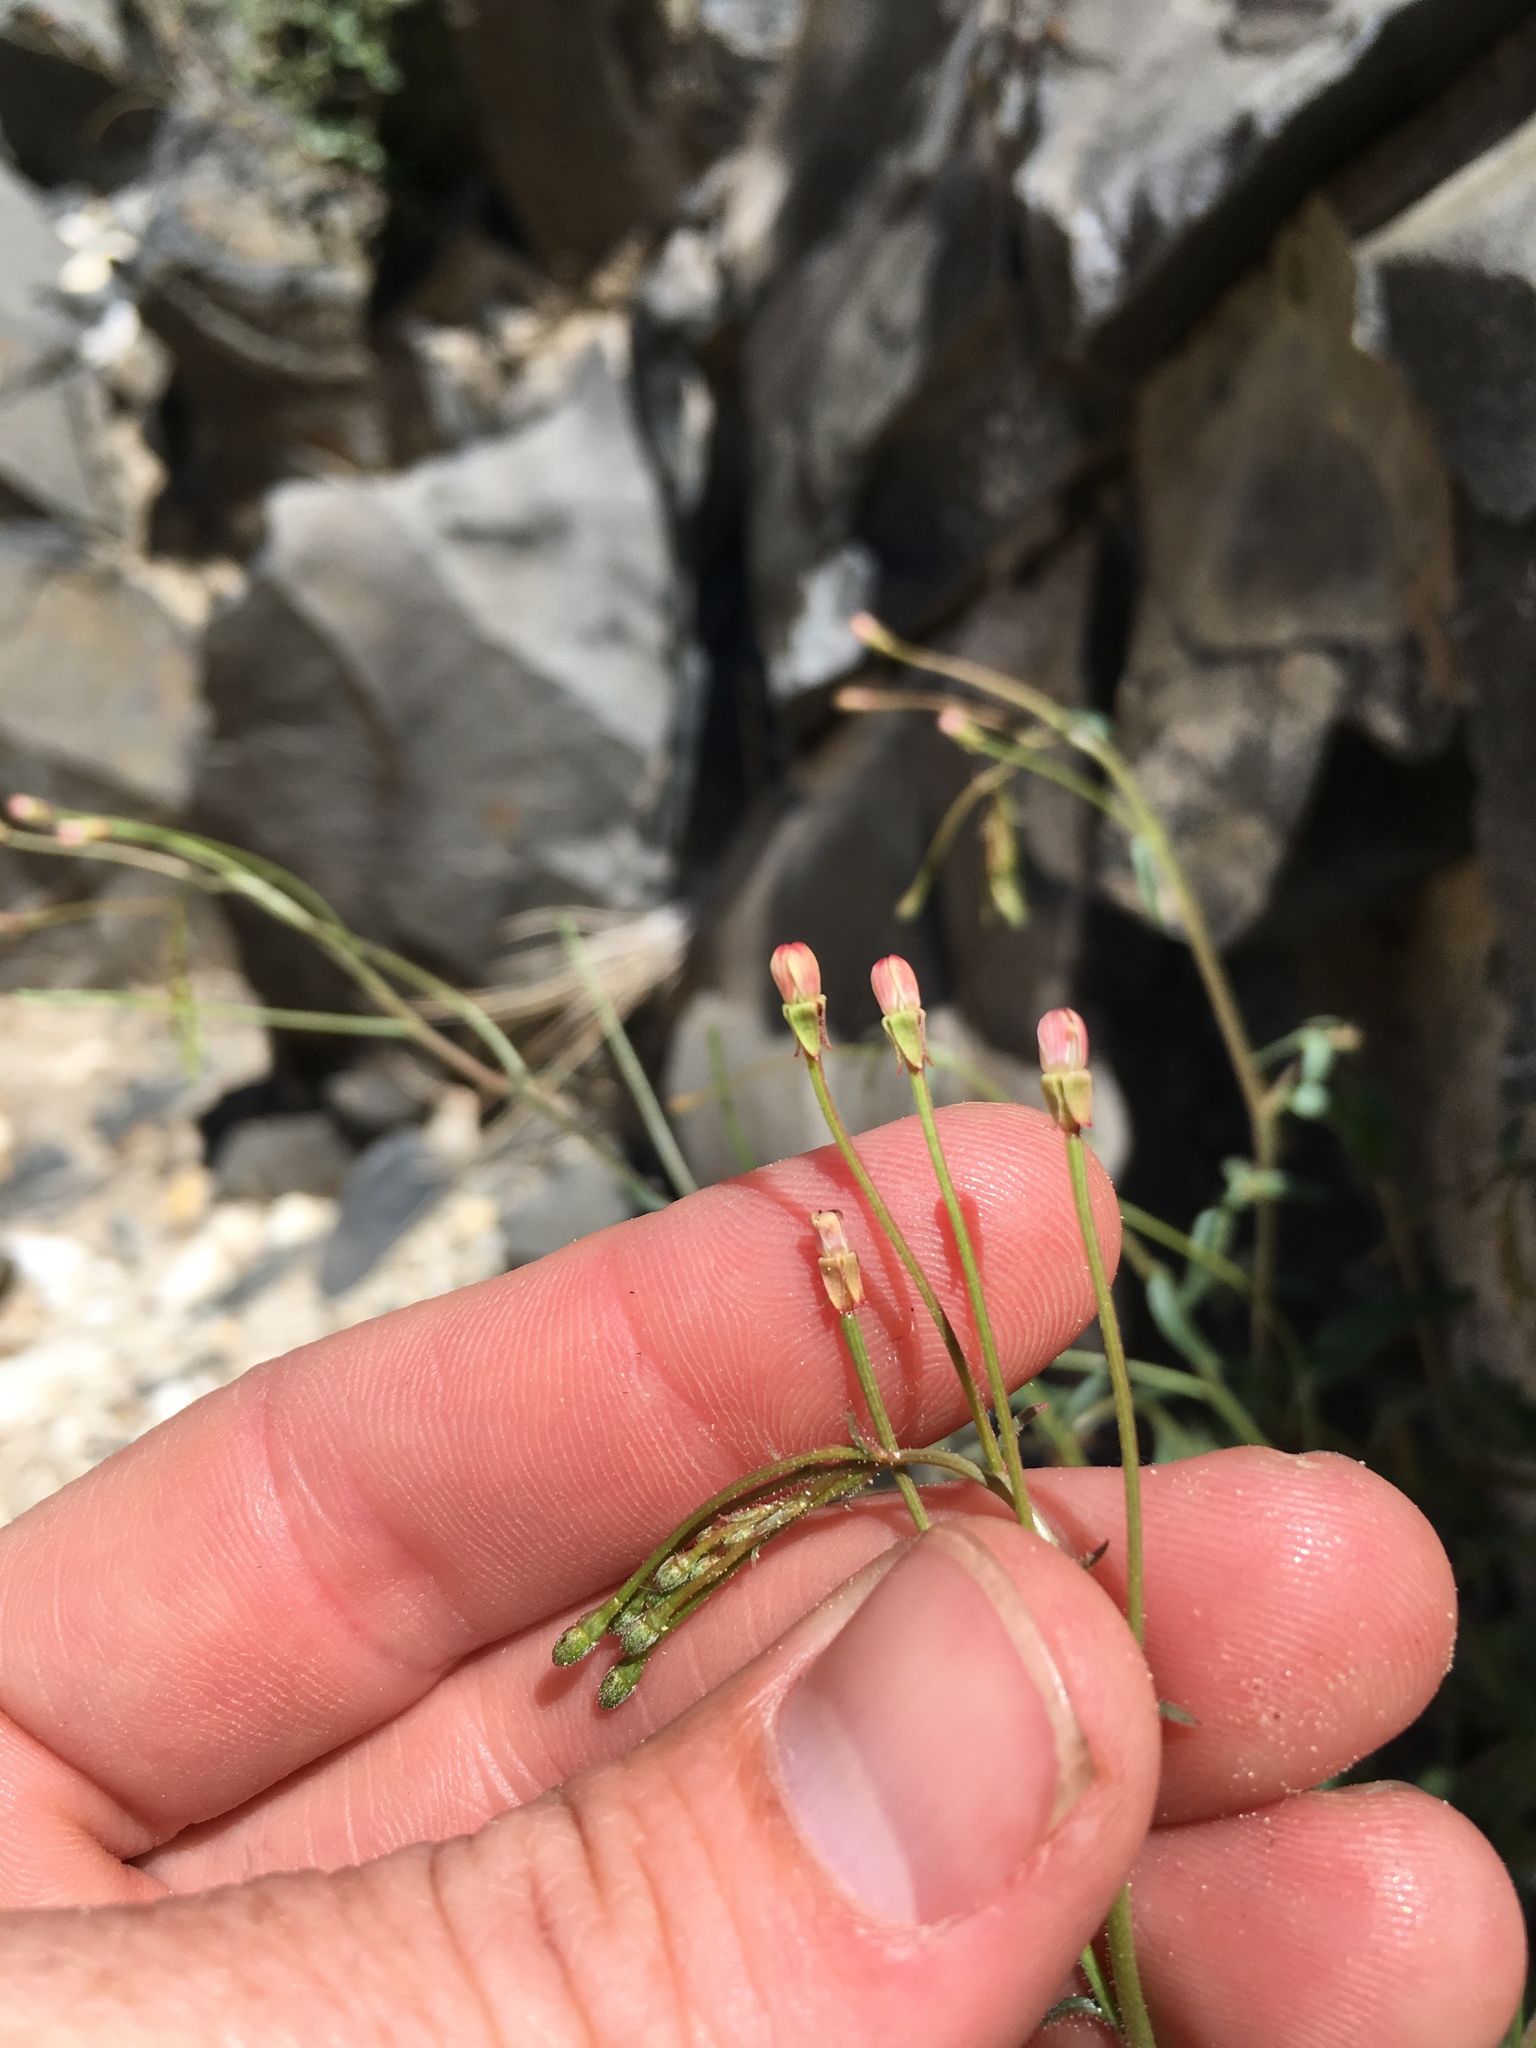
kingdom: Plantae
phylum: Tracheophyta
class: Magnoliopsida
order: Myrtales
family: Onagraceae
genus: Eremothera
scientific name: Eremothera chamaenerioides
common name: Longcapsule suncup
